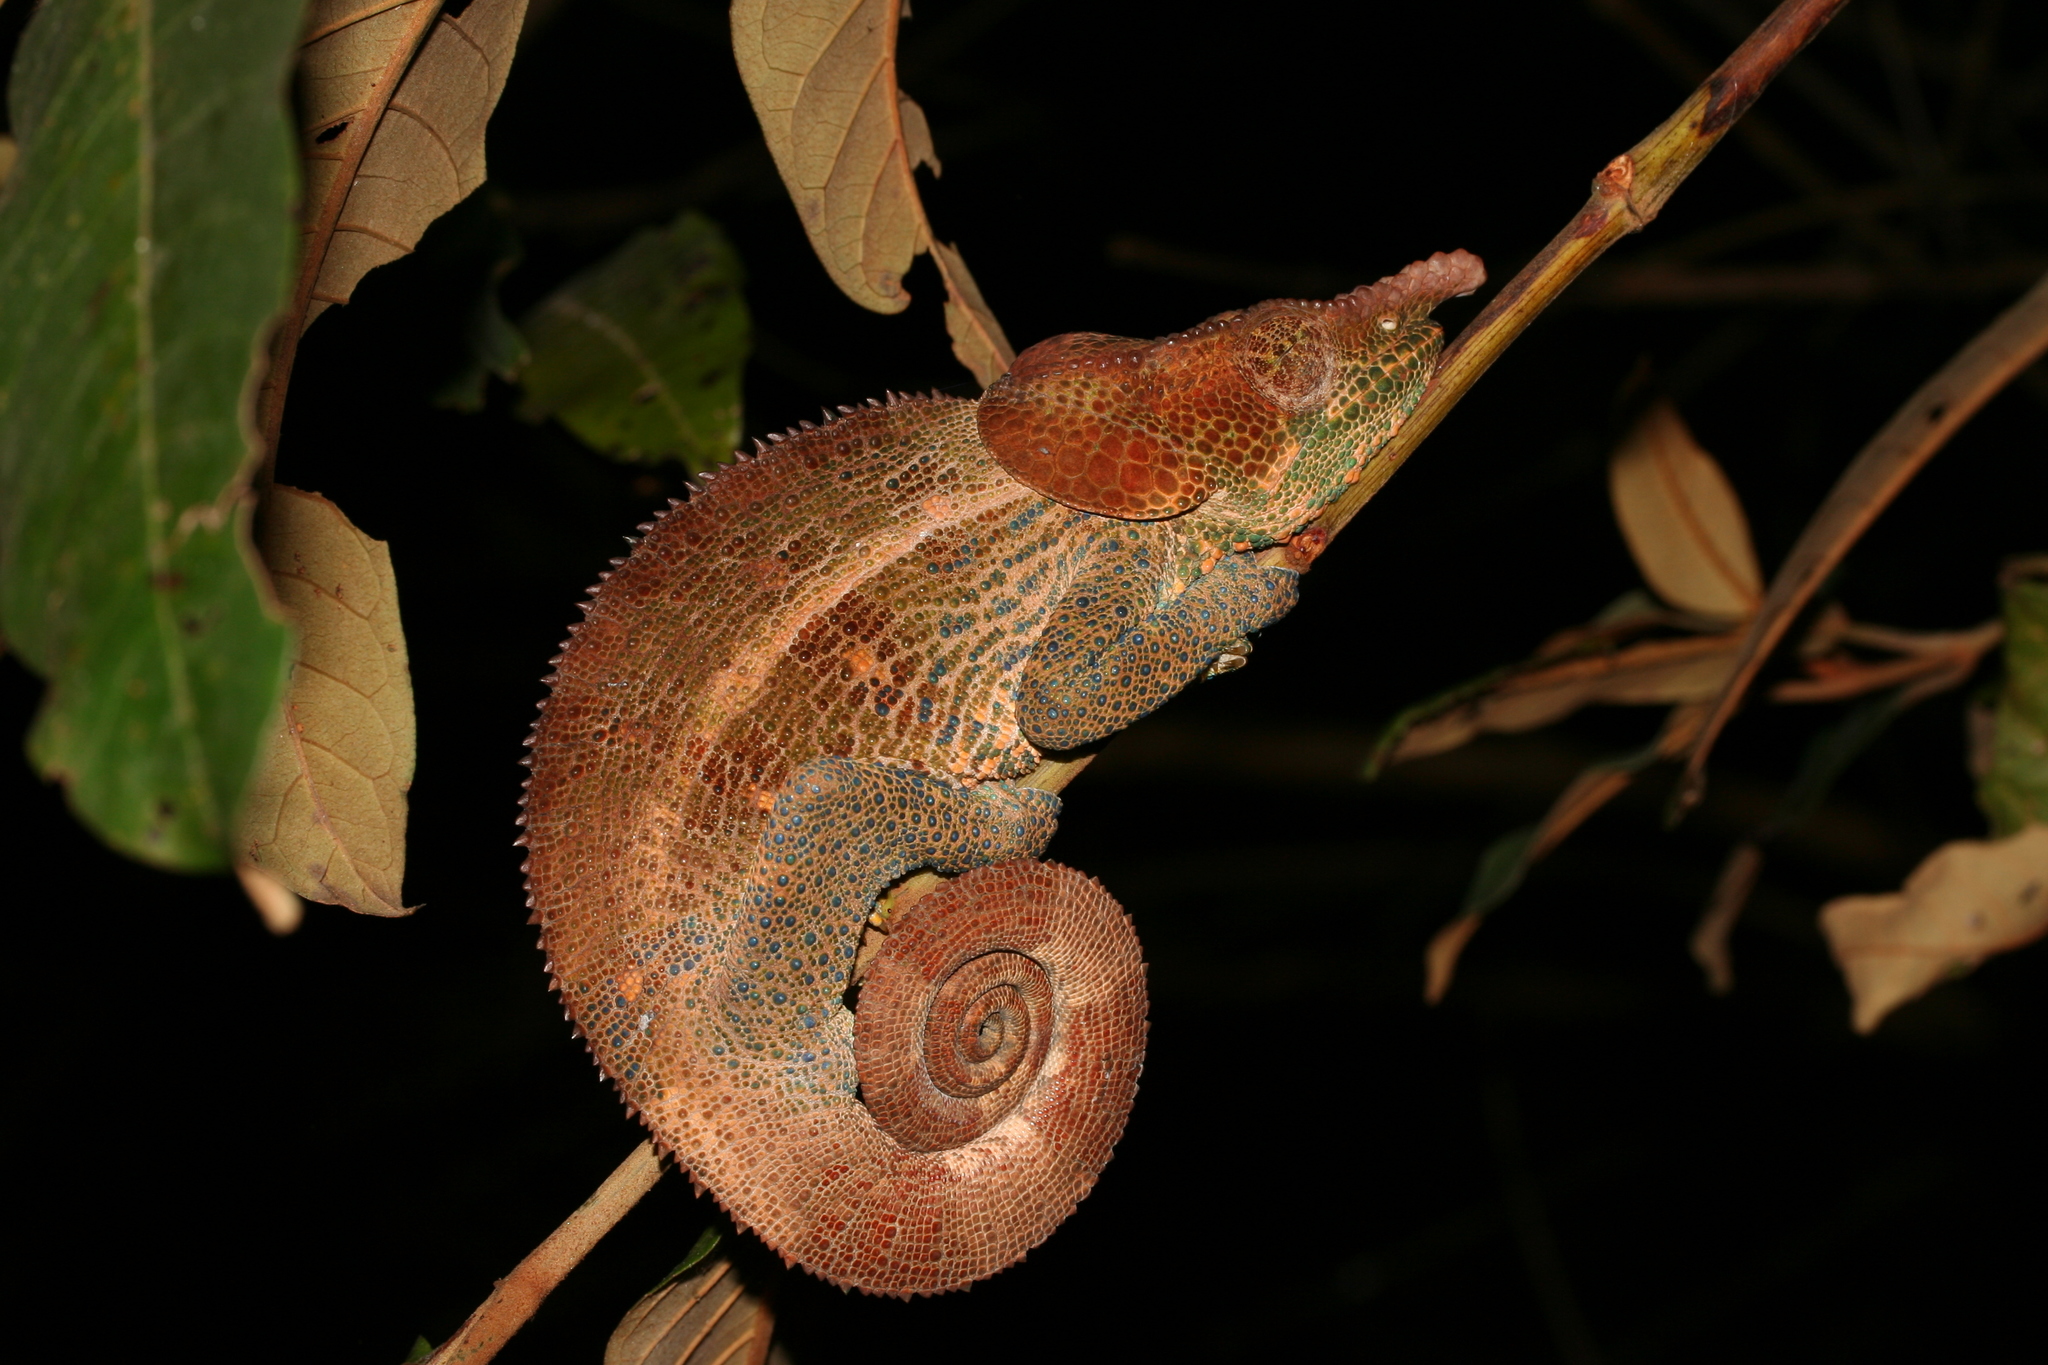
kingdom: Animalia
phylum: Chordata
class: Squamata
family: Chamaeleonidae
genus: Calumma
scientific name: Calumma crypticum
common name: Cryptic chameleon
